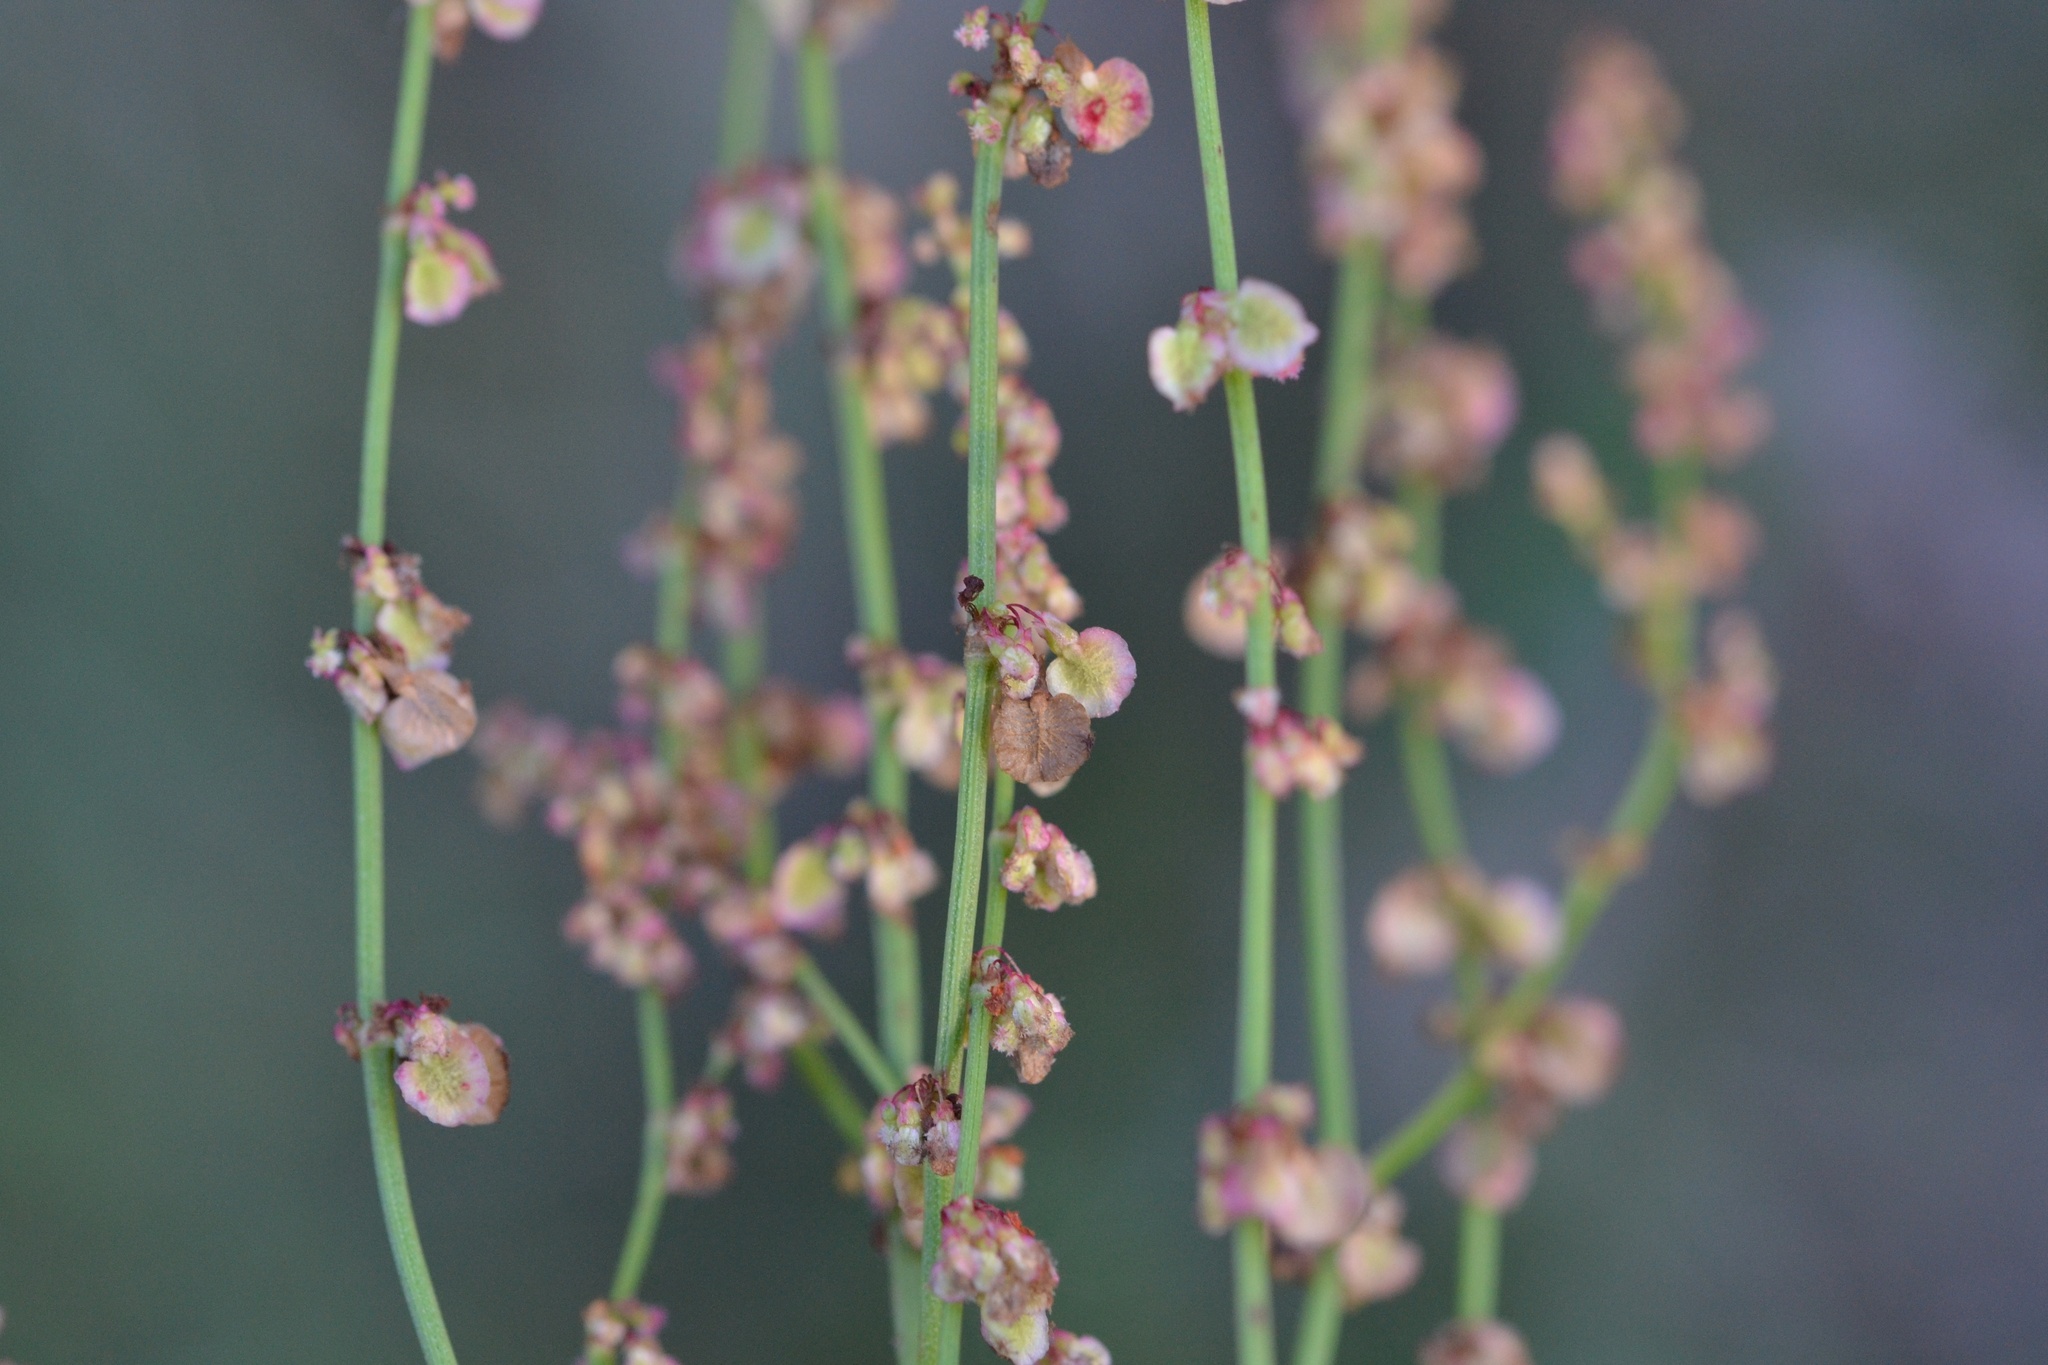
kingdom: Plantae
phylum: Tracheophyta
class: Magnoliopsida
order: Caryophyllales
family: Polygonaceae
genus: Rumex
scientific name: Rumex thyrsiflorus
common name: Garden sorrel
